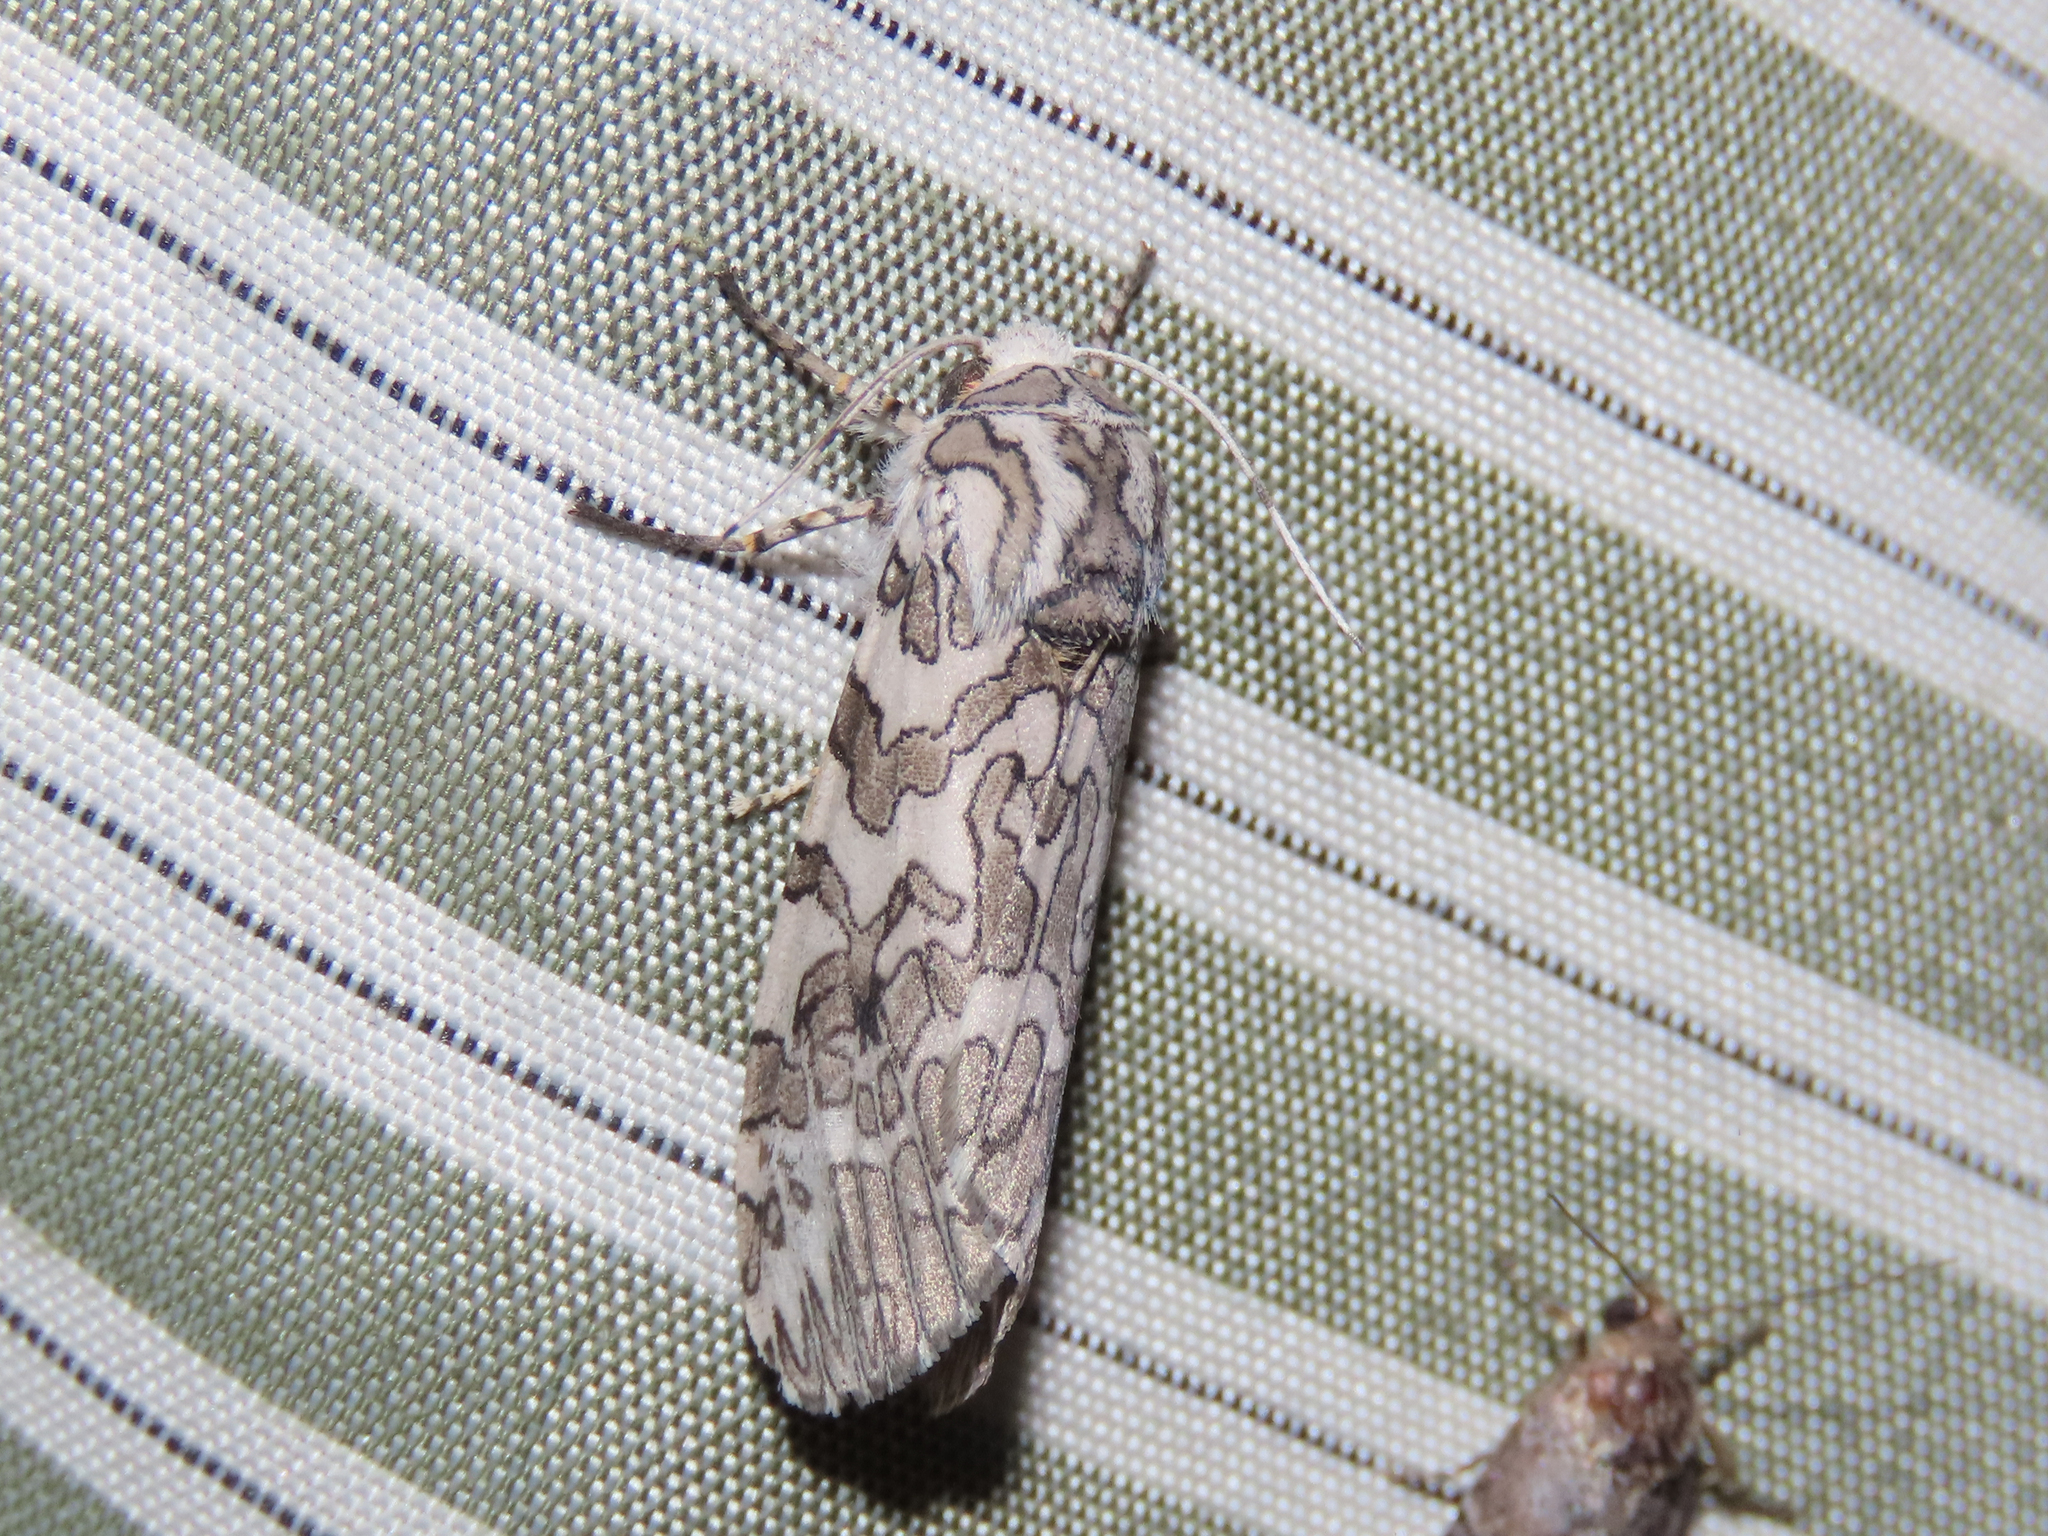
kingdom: Animalia
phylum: Arthropoda
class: Insecta
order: Lepidoptera
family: Erebidae
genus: Hypercompe
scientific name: Hypercompe suffusa
